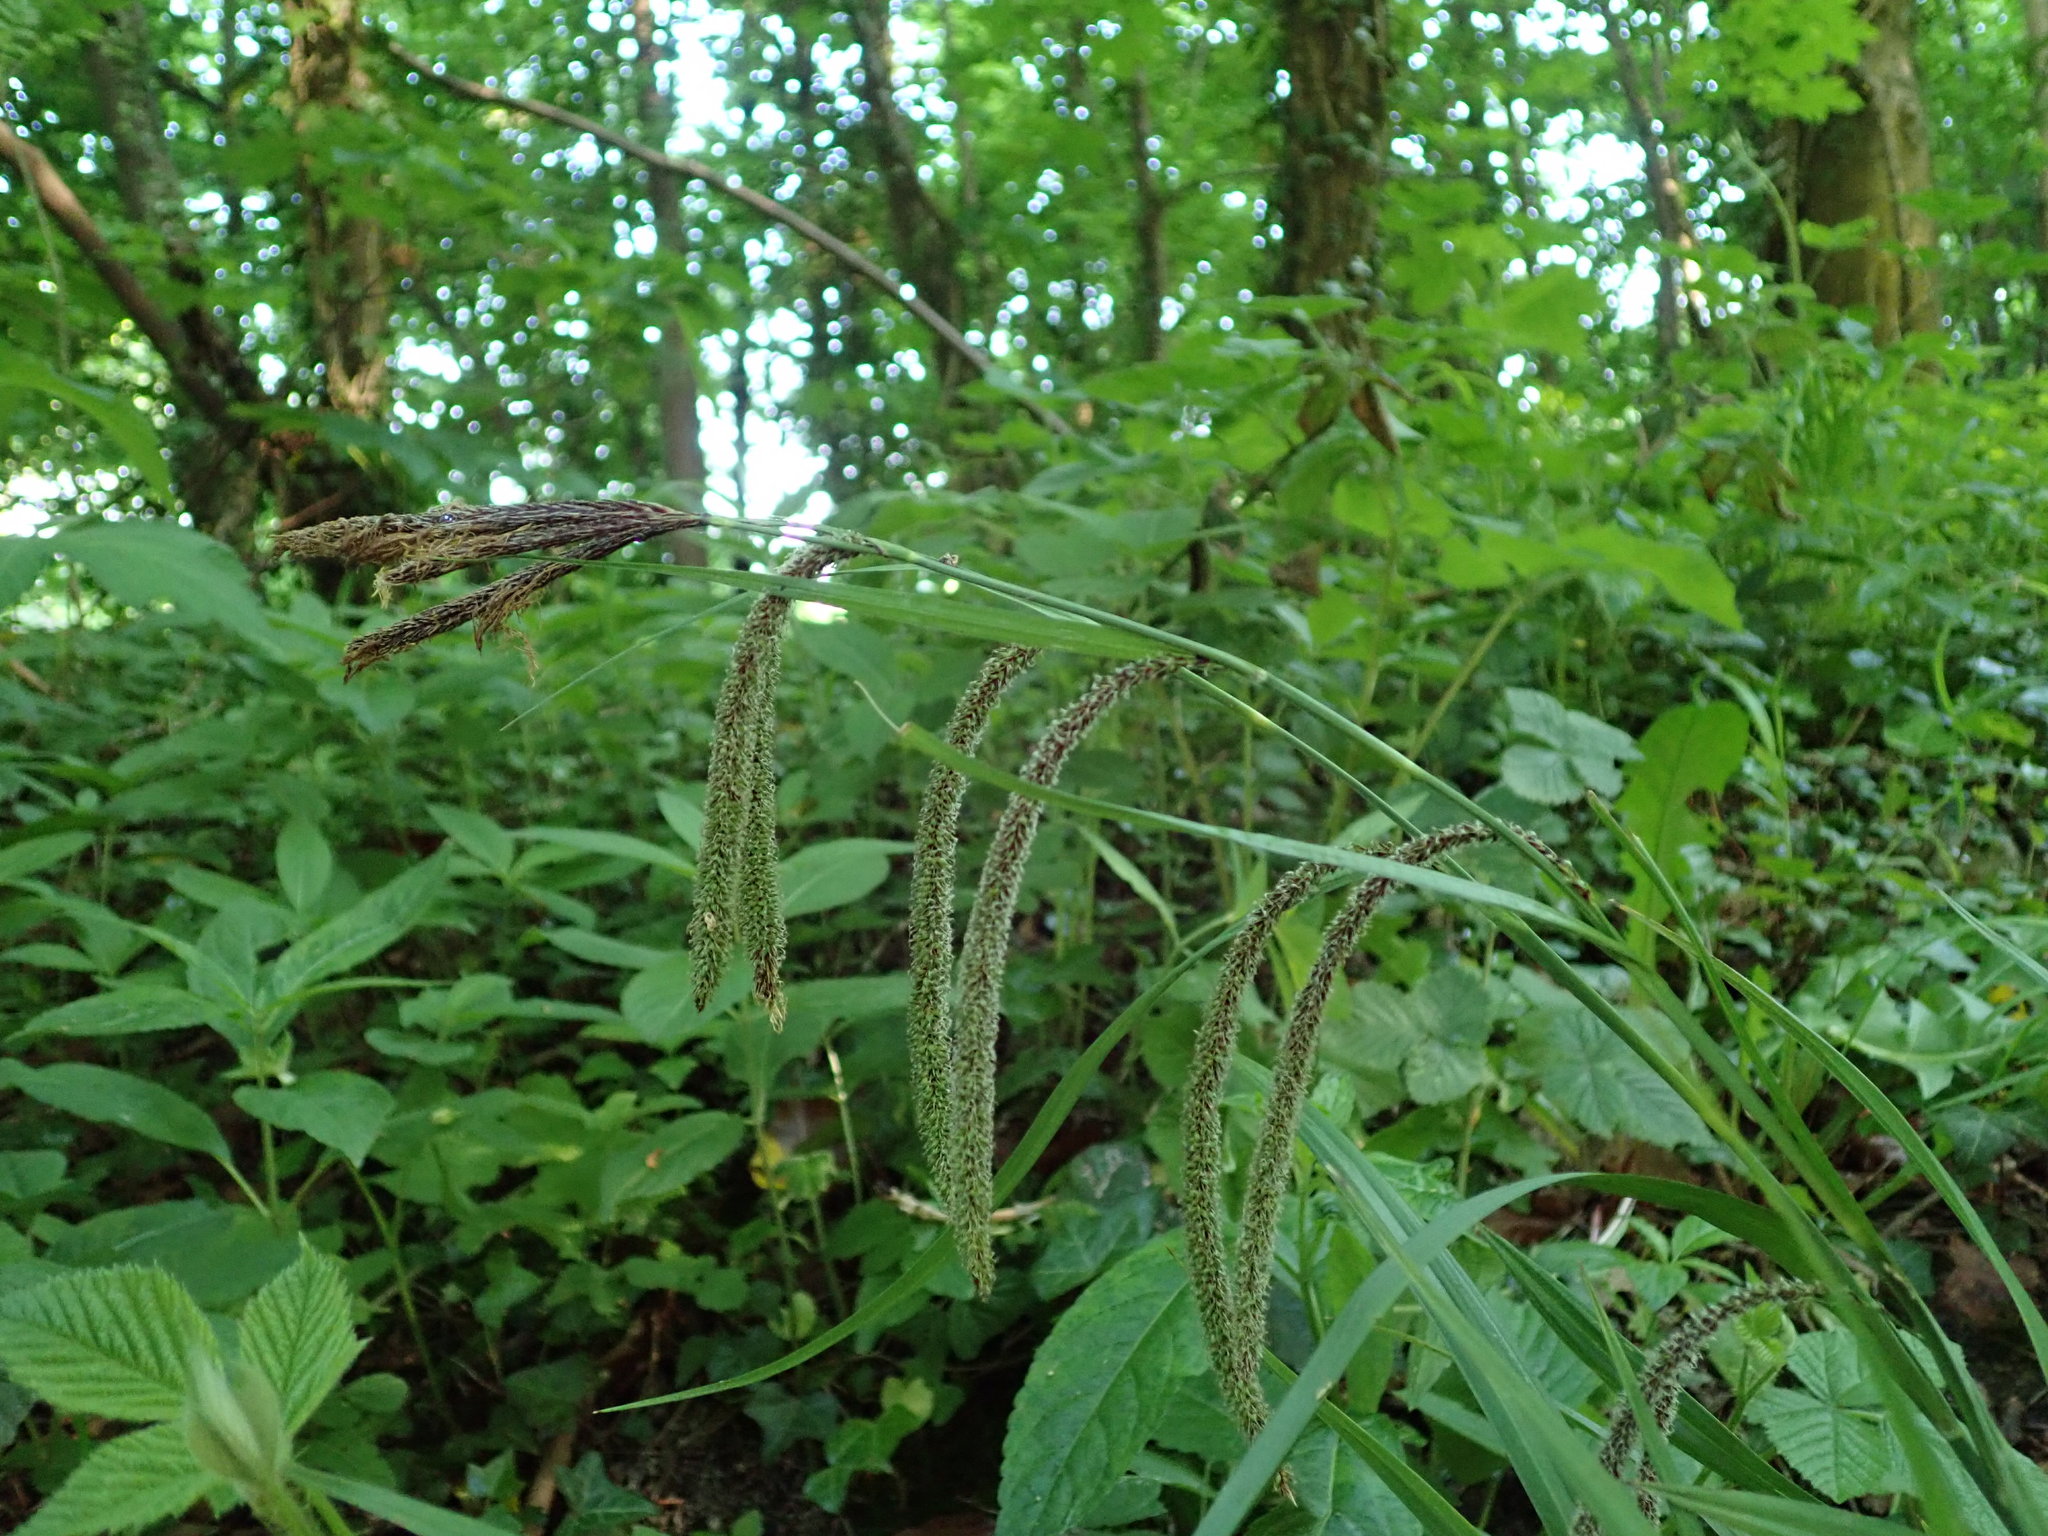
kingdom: Plantae
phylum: Tracheophyta
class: Liliopsida
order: Poales
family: Cyperaceae
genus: Carex
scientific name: Carex pendula
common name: Pendulous sedge
